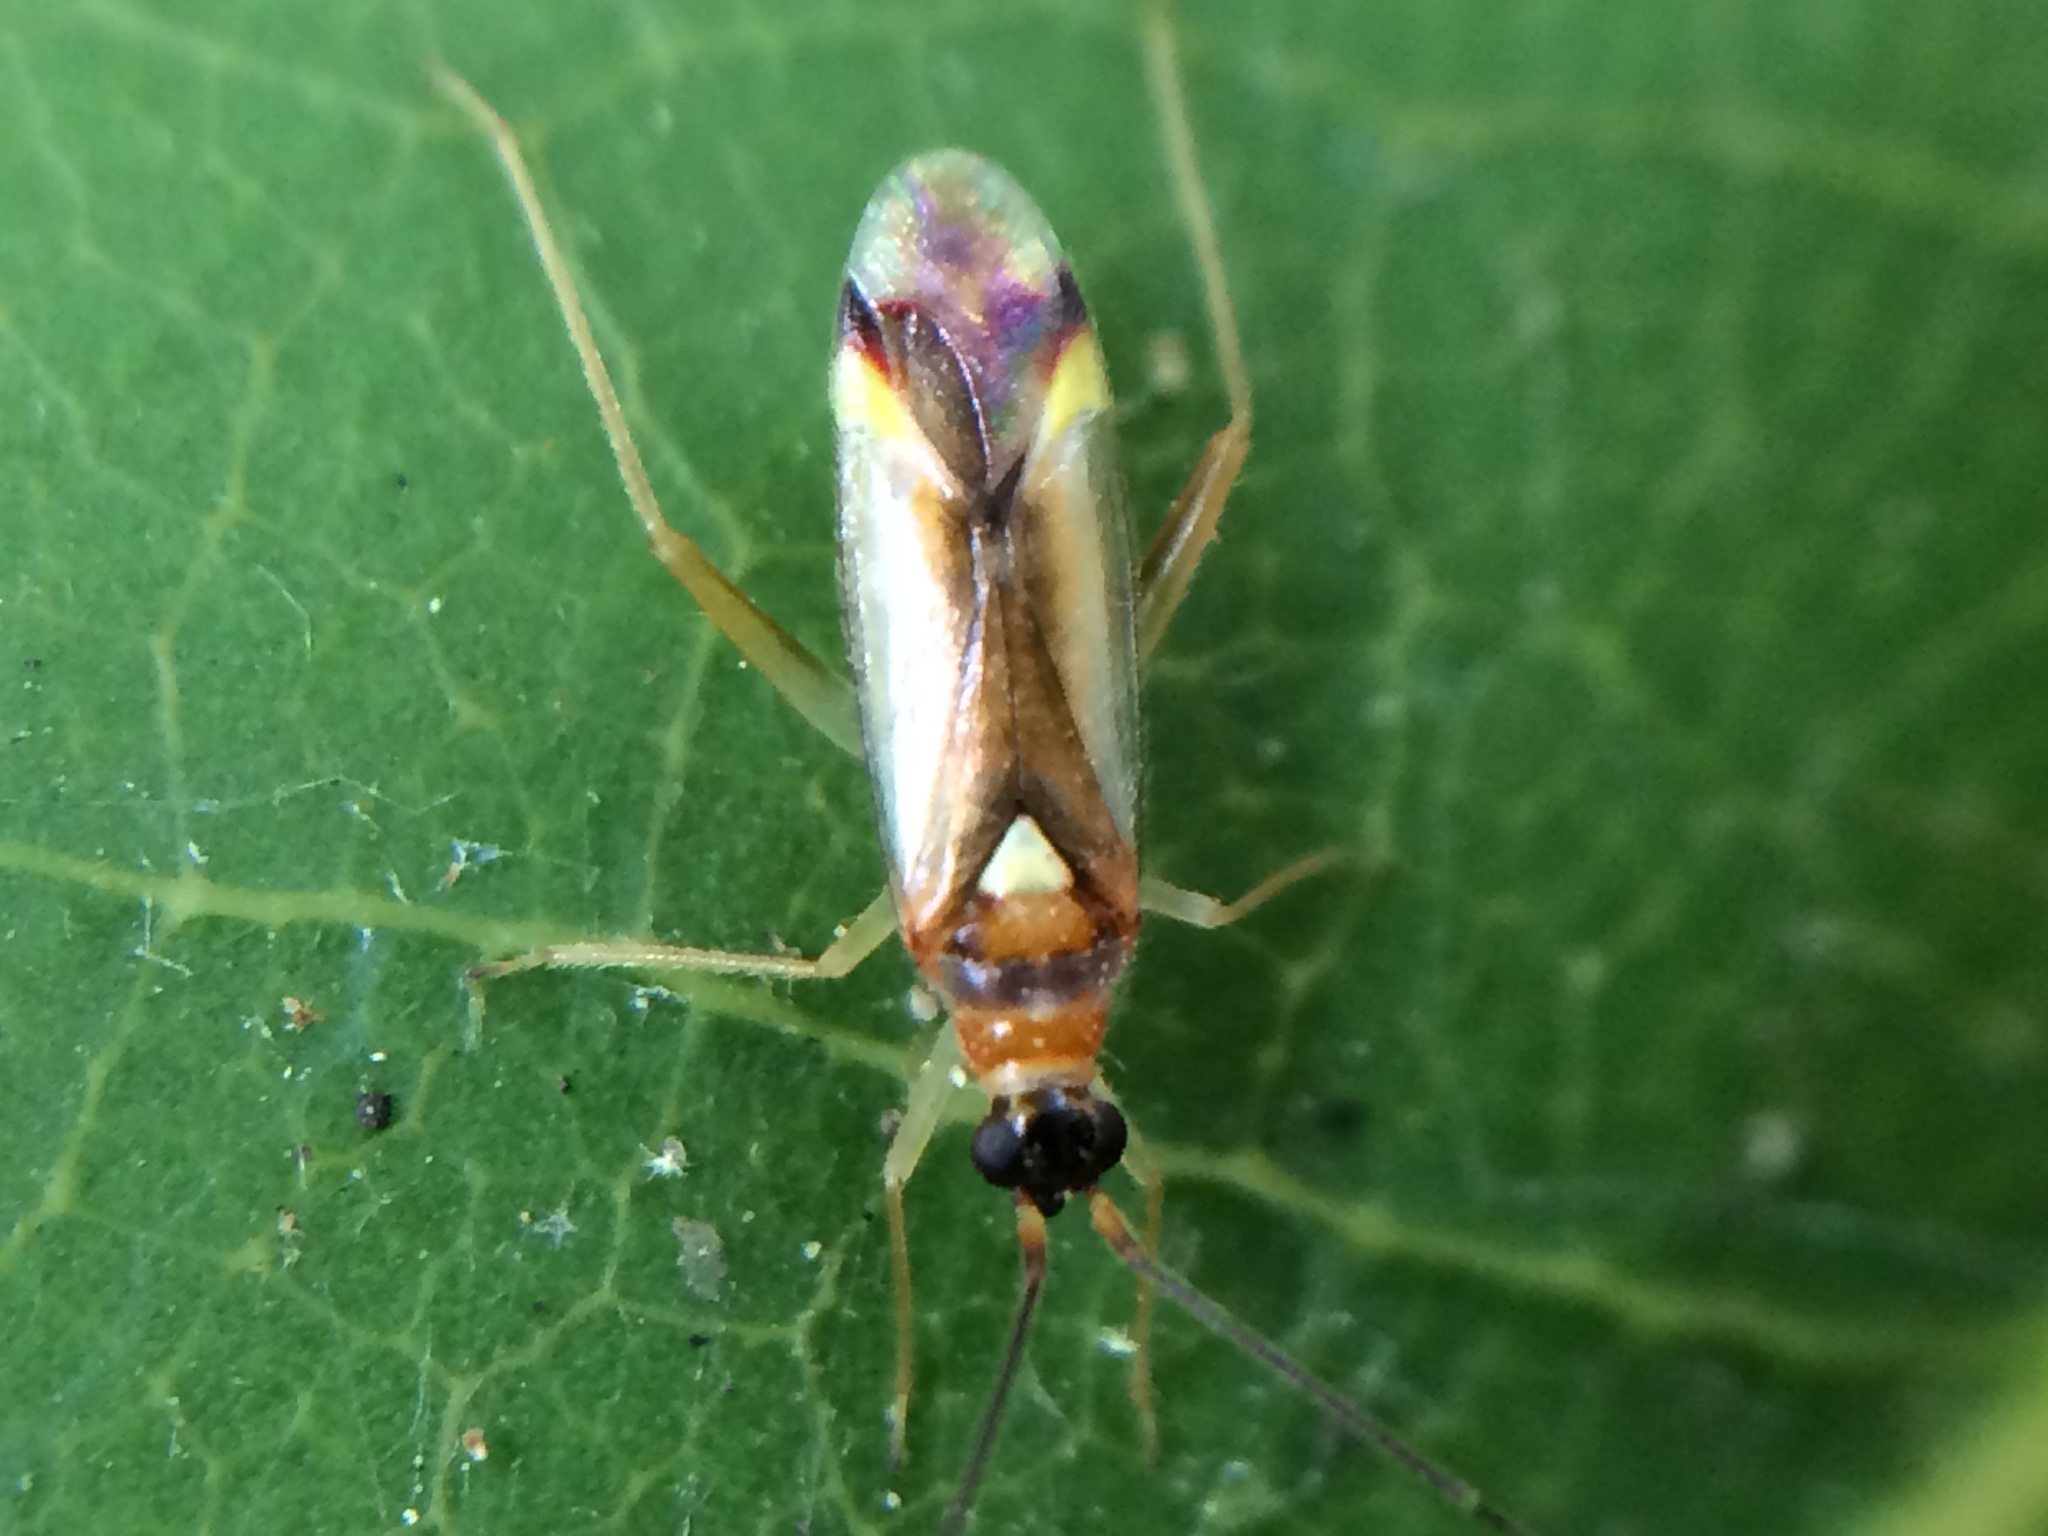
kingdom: Animalia
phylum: Arthropoda
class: Insecta
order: Hemiptera
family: Miridae
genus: Campyloneura
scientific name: Campyloneura virgula
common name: Predatory bug
